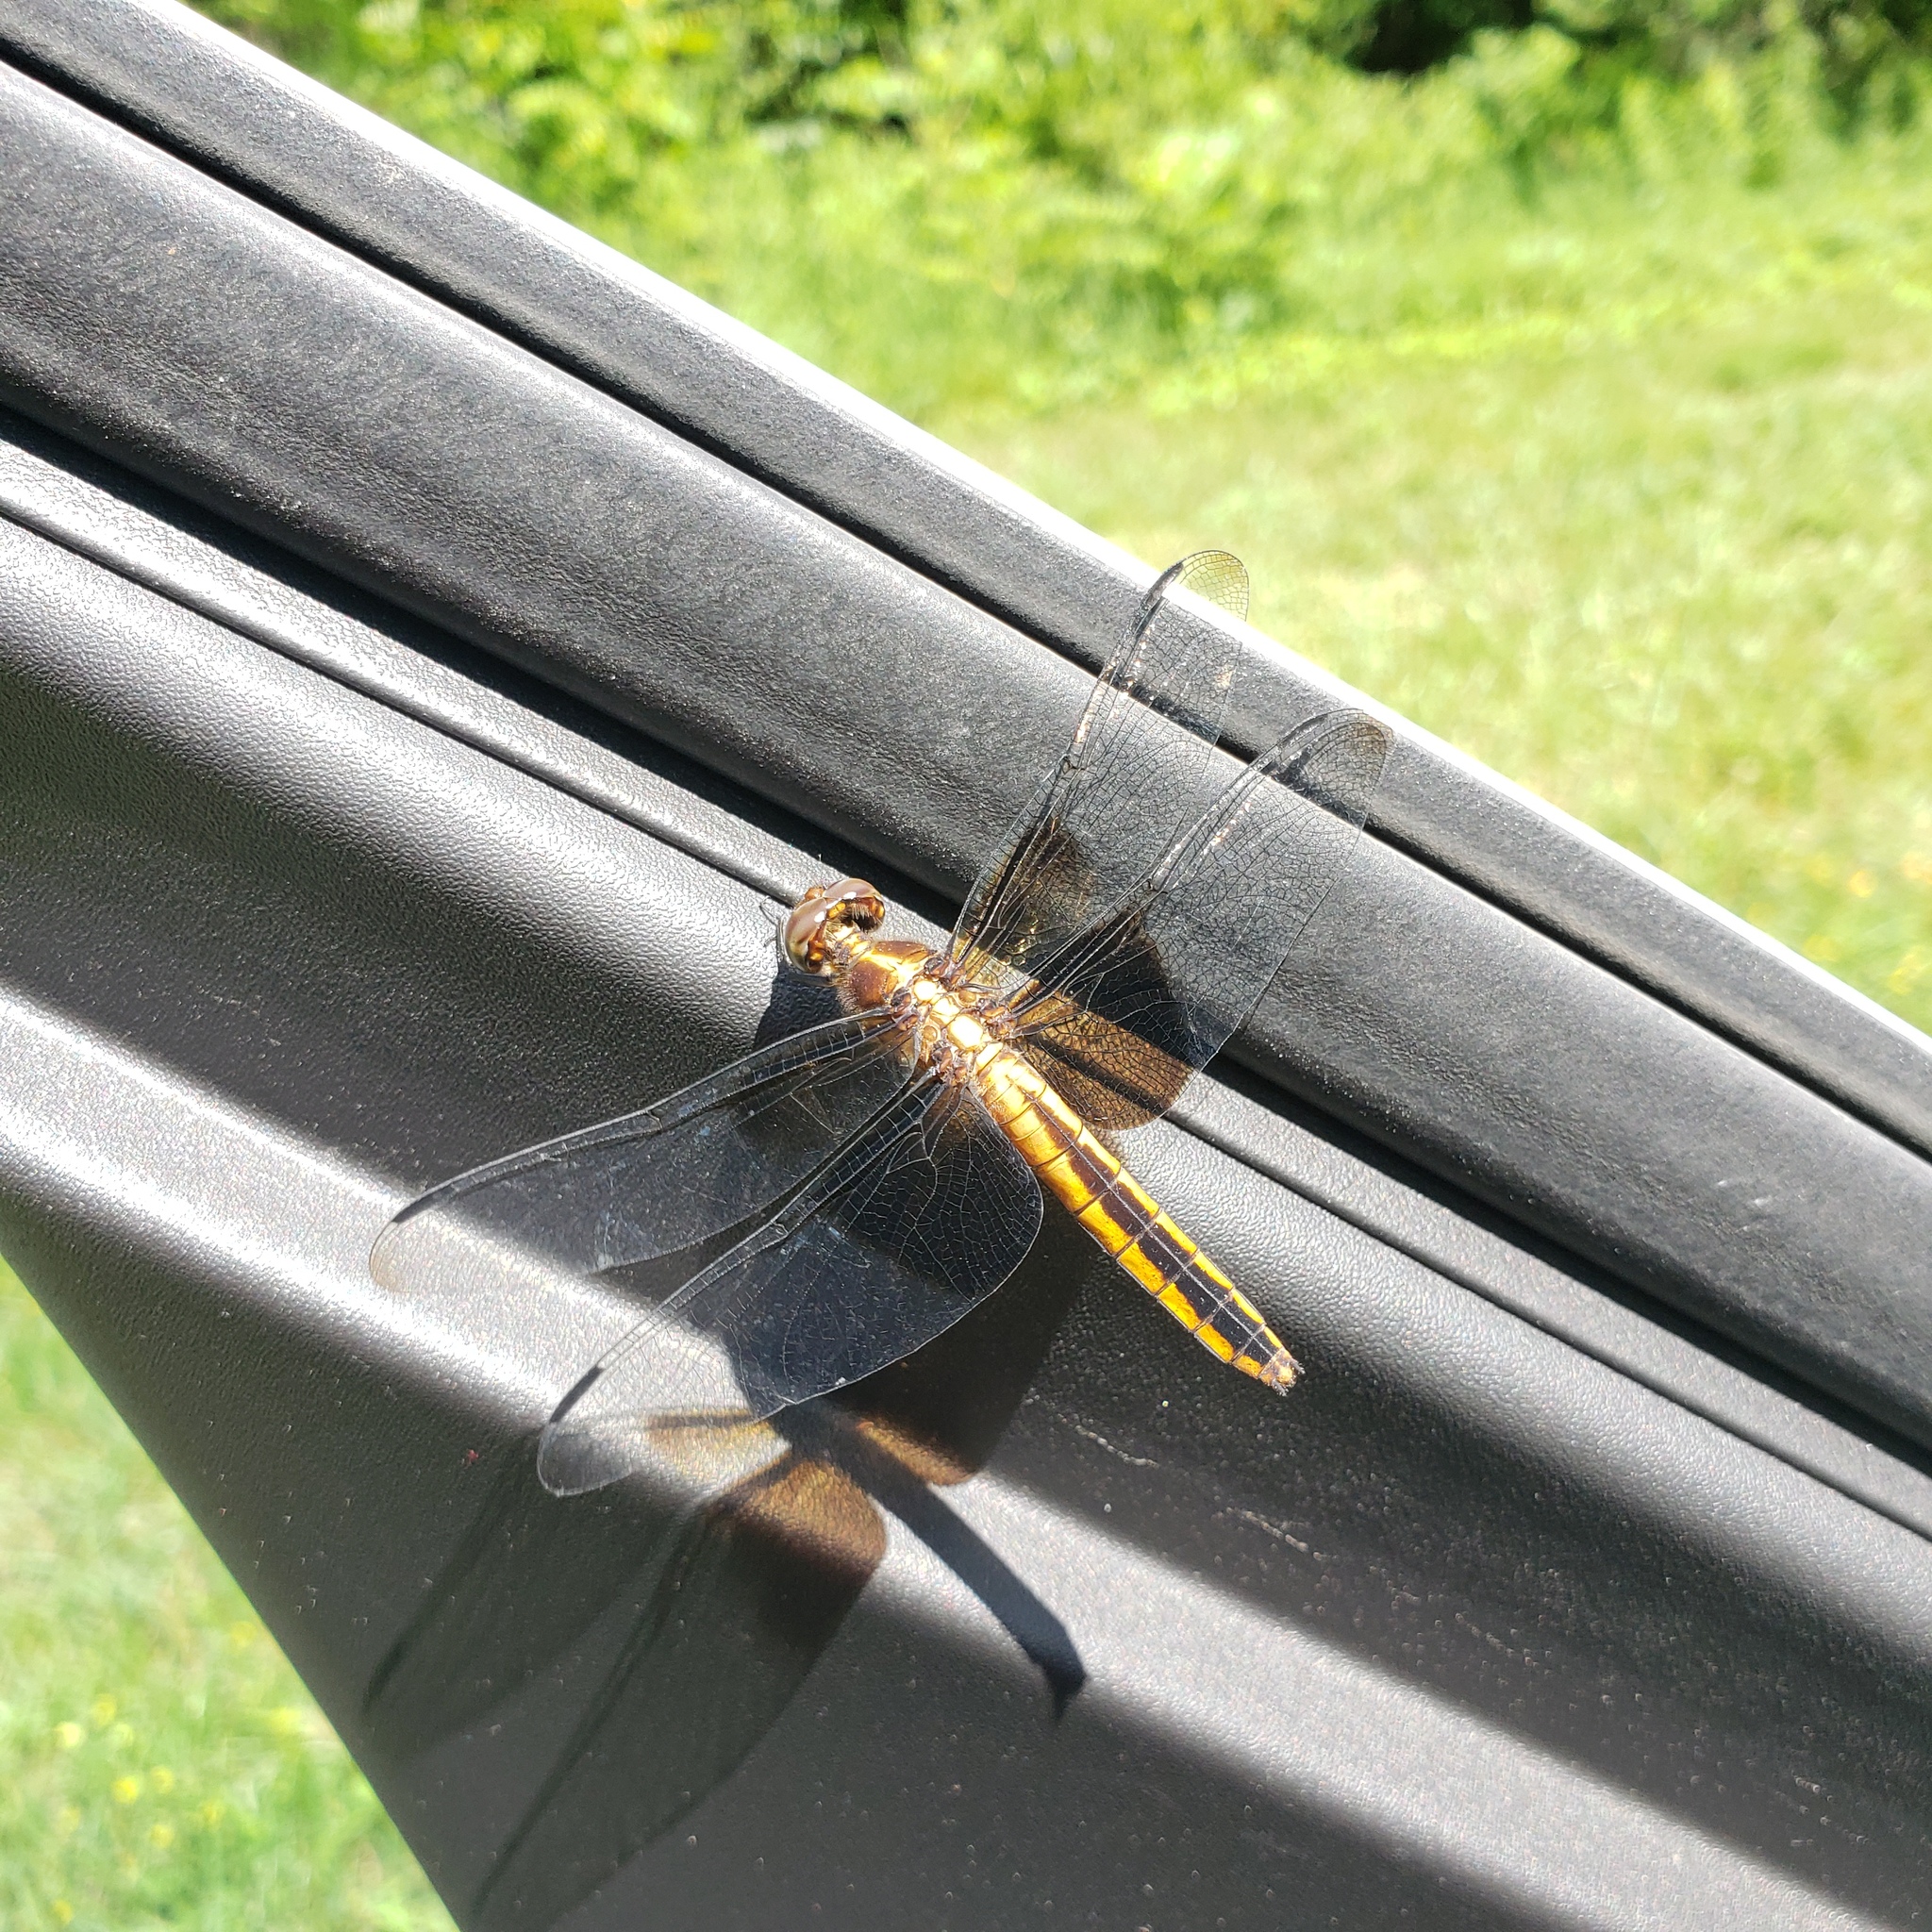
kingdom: Animalia
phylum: Arthropoda
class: Insecta
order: Odonata
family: Libellulidae
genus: Libellula
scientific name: Libellula luctuosa
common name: Widow skimmer
